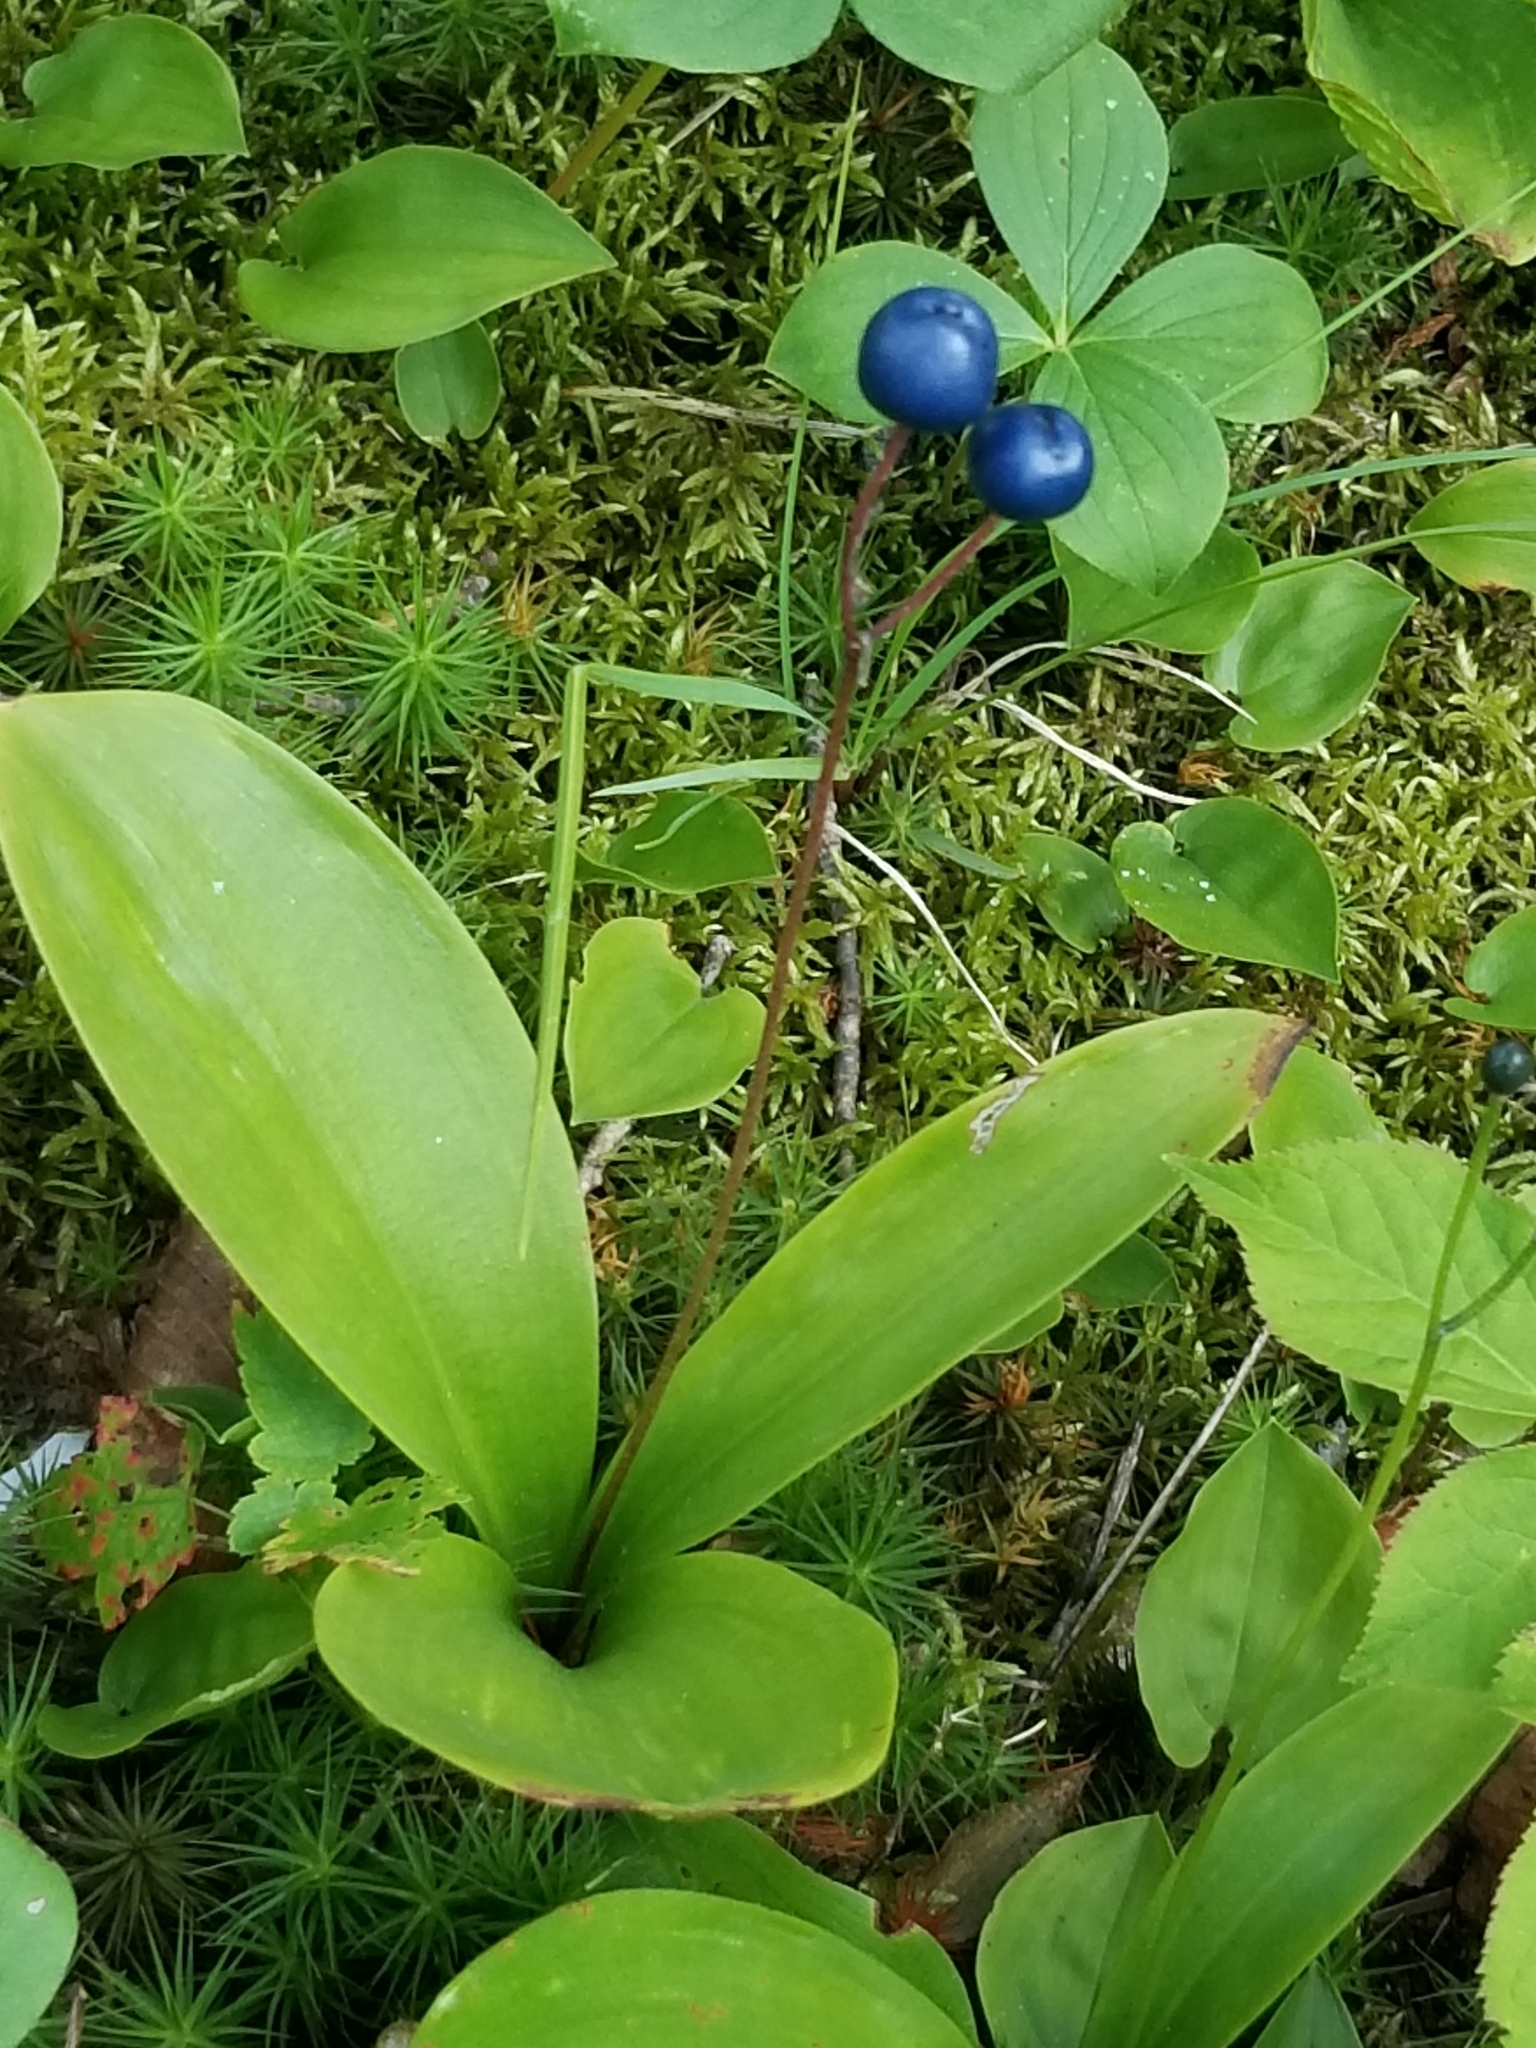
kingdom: Plantae
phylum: Tracheophyta
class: Liliopsida
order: Liliales
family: Liliaceae
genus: Clintonia
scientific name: Clintonia borealis
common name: Yellow clintonia
